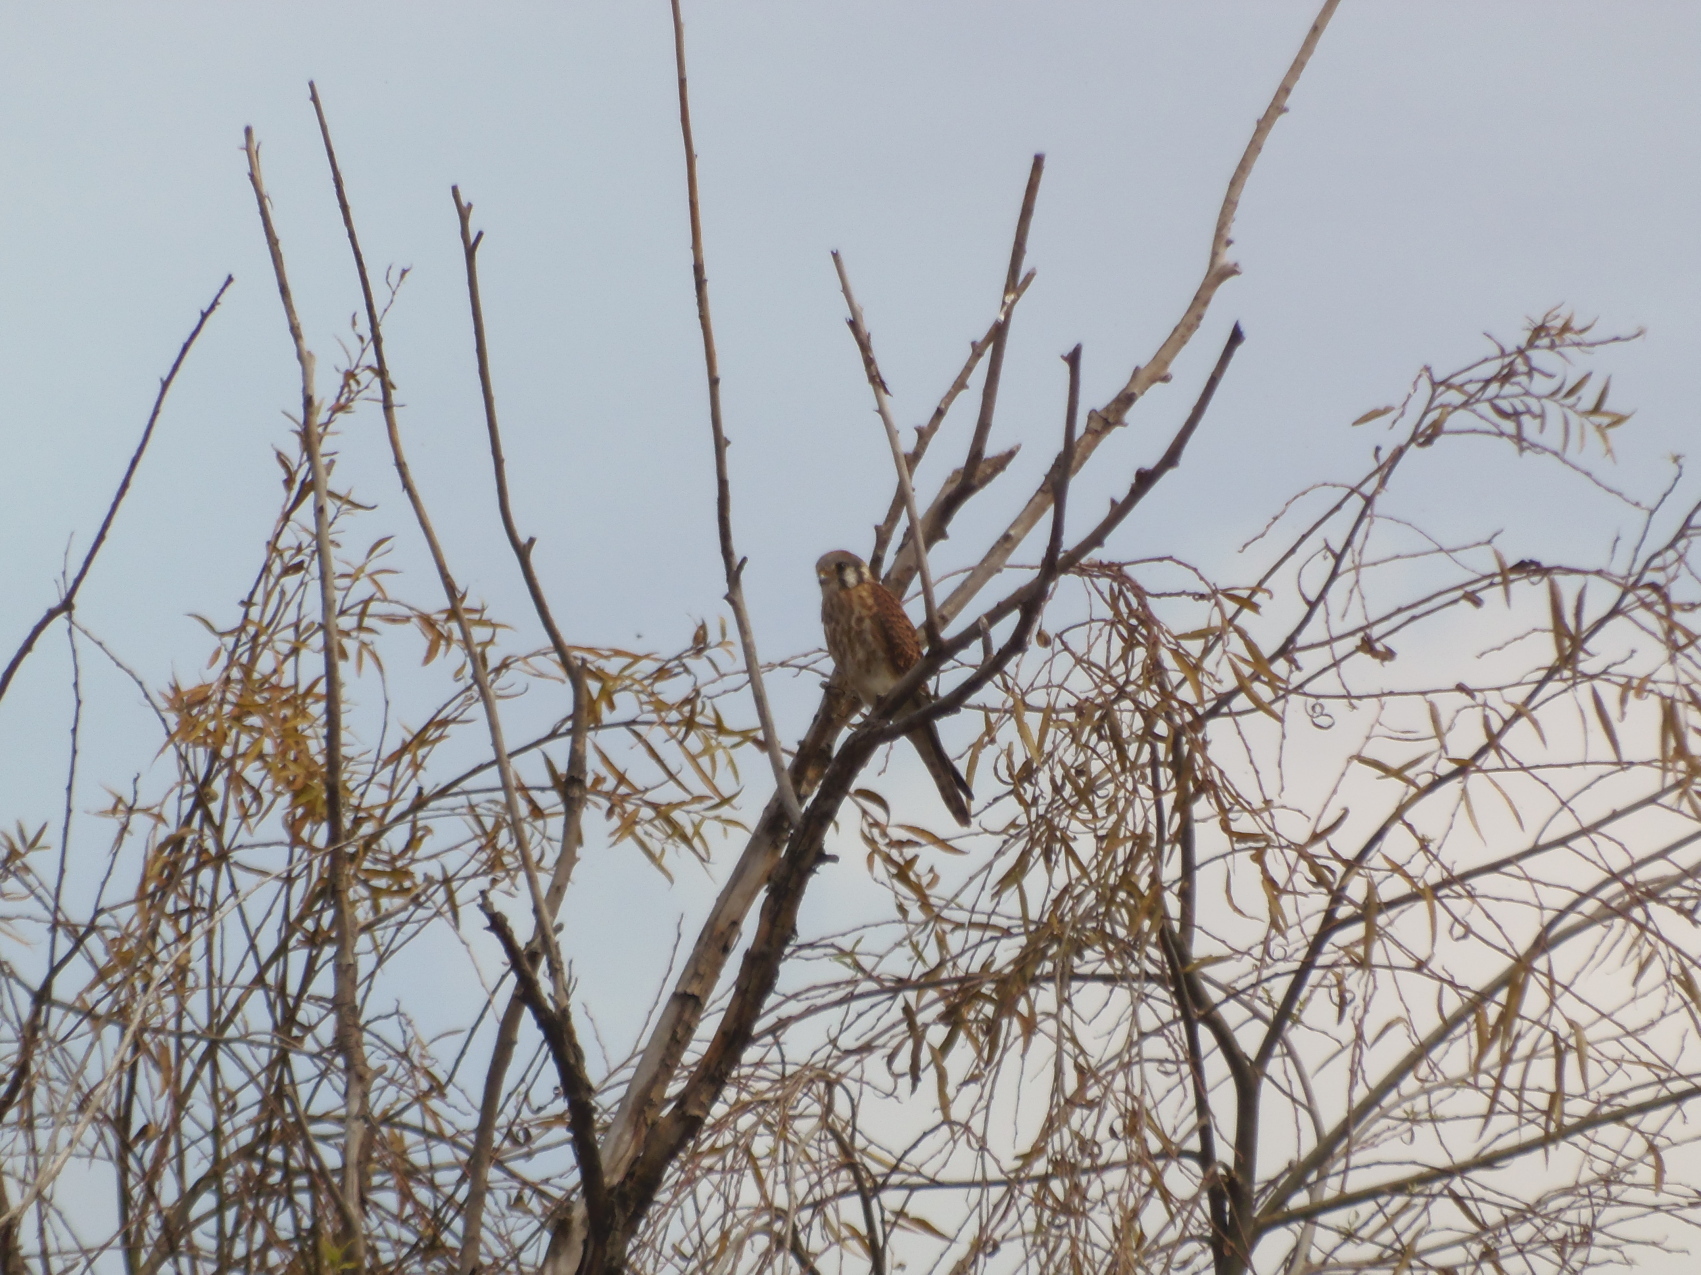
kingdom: Animalia
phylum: Chordata
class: Aves
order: Falconiformes
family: Falconidae
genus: Falco
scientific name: Falco sparverius
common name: American kestrel
